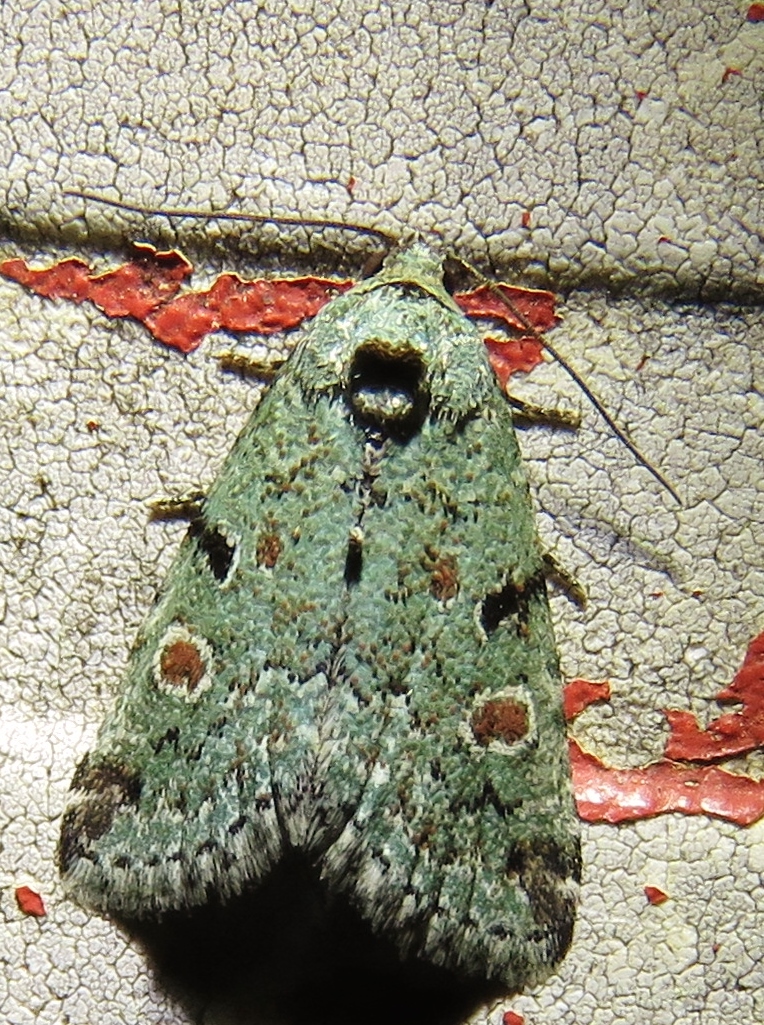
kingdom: Animalia
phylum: Arthropoda
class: Insecta
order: Lepidoptera
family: Noctuidae
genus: Maliattha
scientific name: Maliattha concinnimacula
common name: Red-spotted glyph
